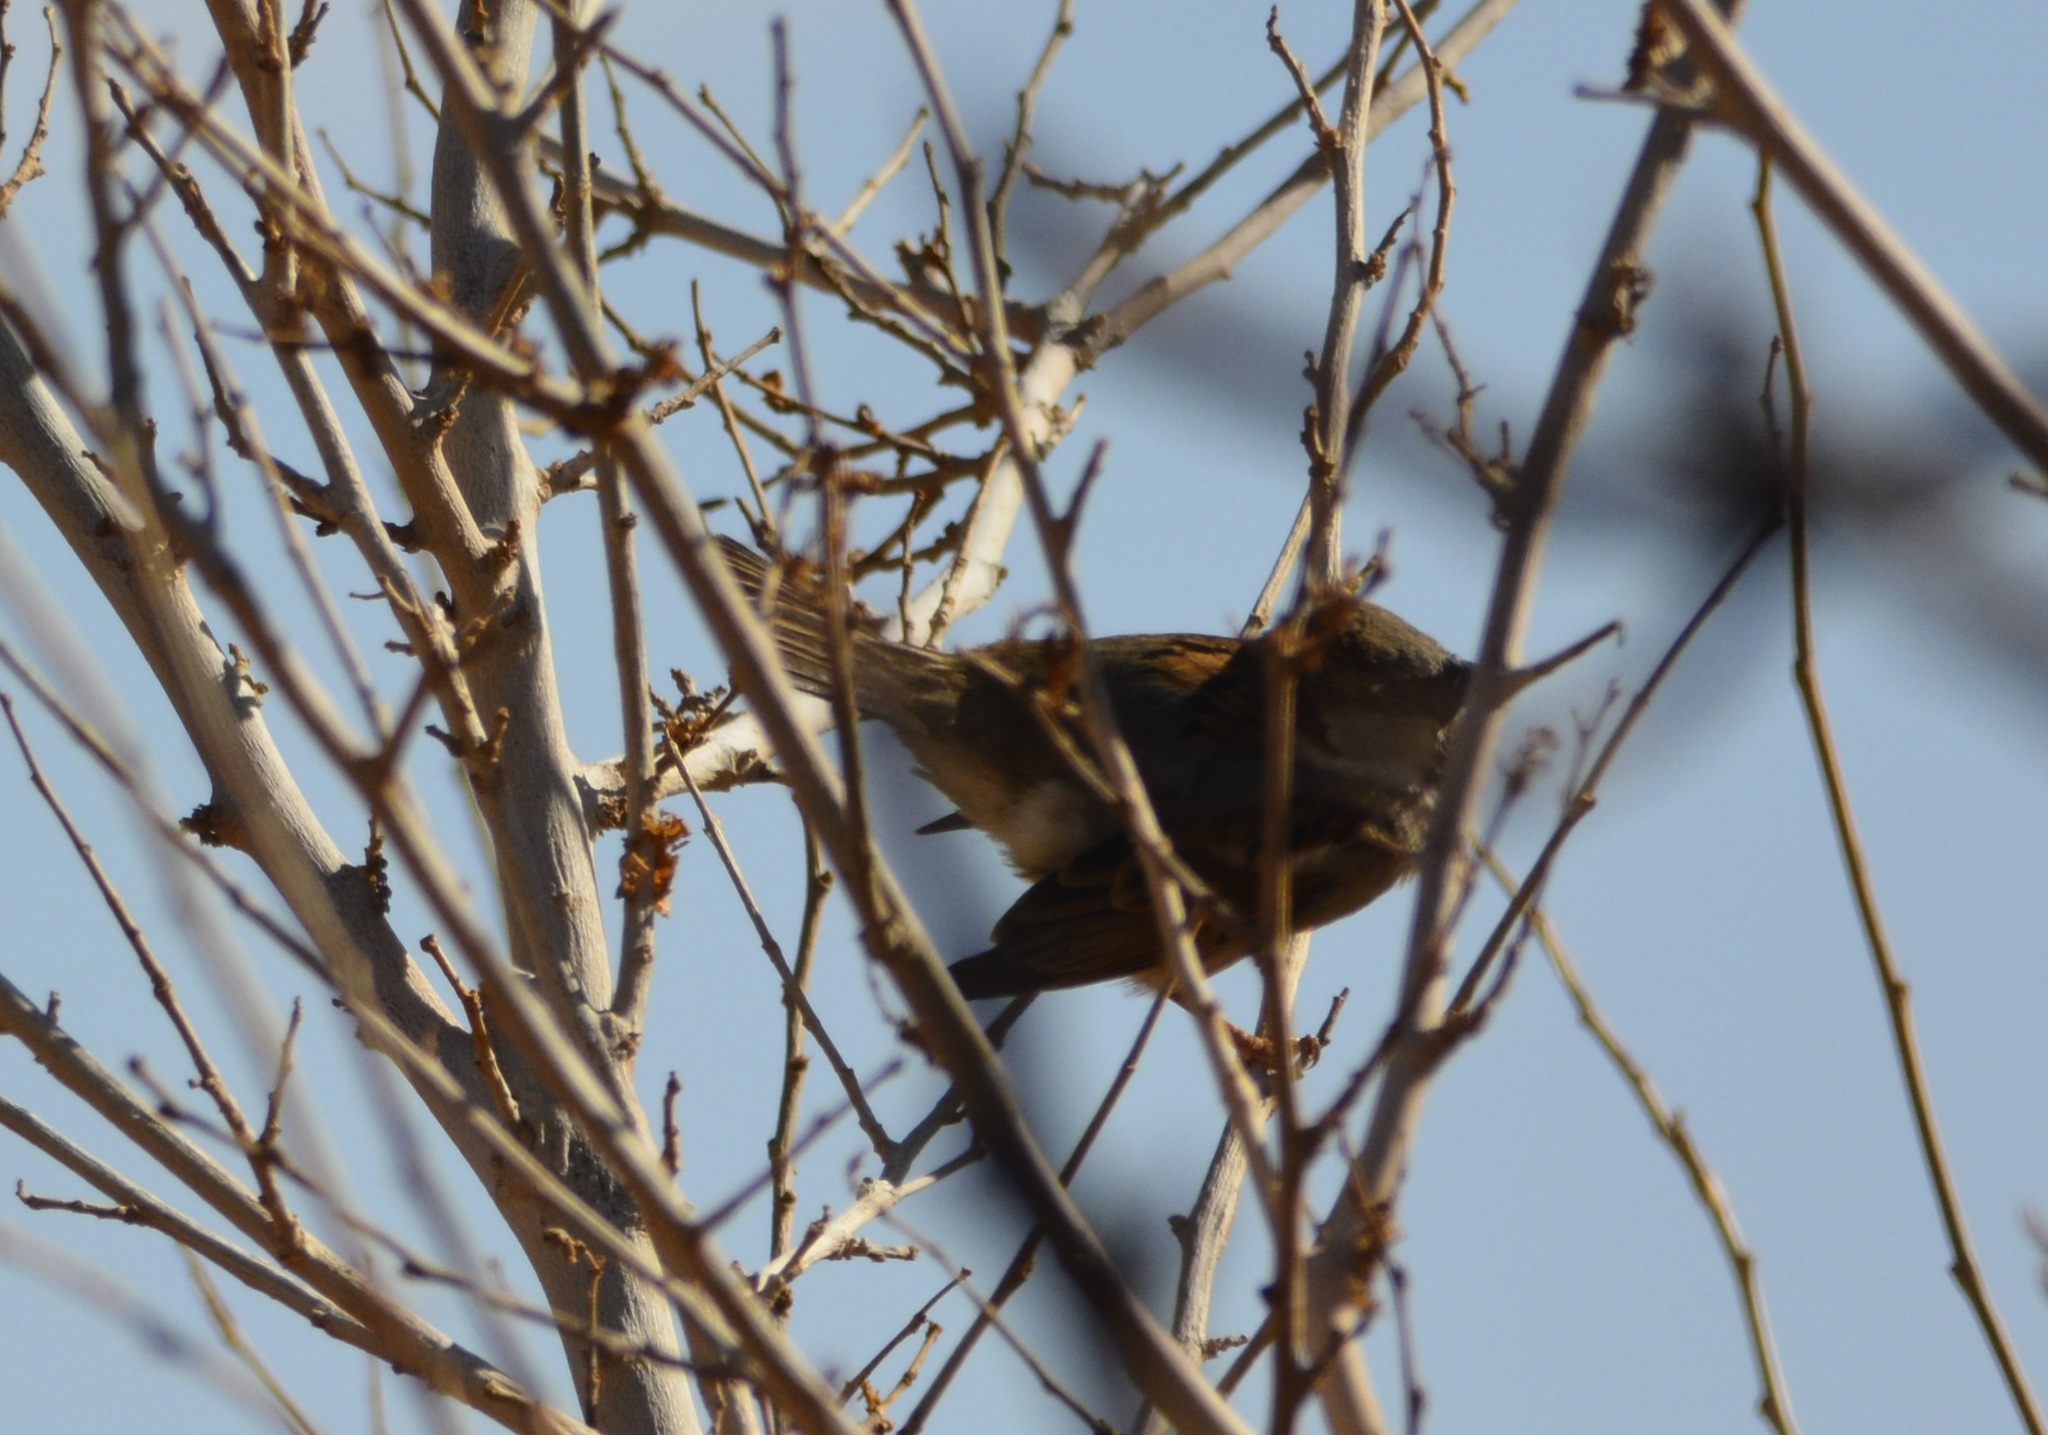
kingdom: Animalia
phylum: Chordata
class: Aves
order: Passeriformes
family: Passeridae
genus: Passer
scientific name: Passer domesticus
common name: House sparrow
